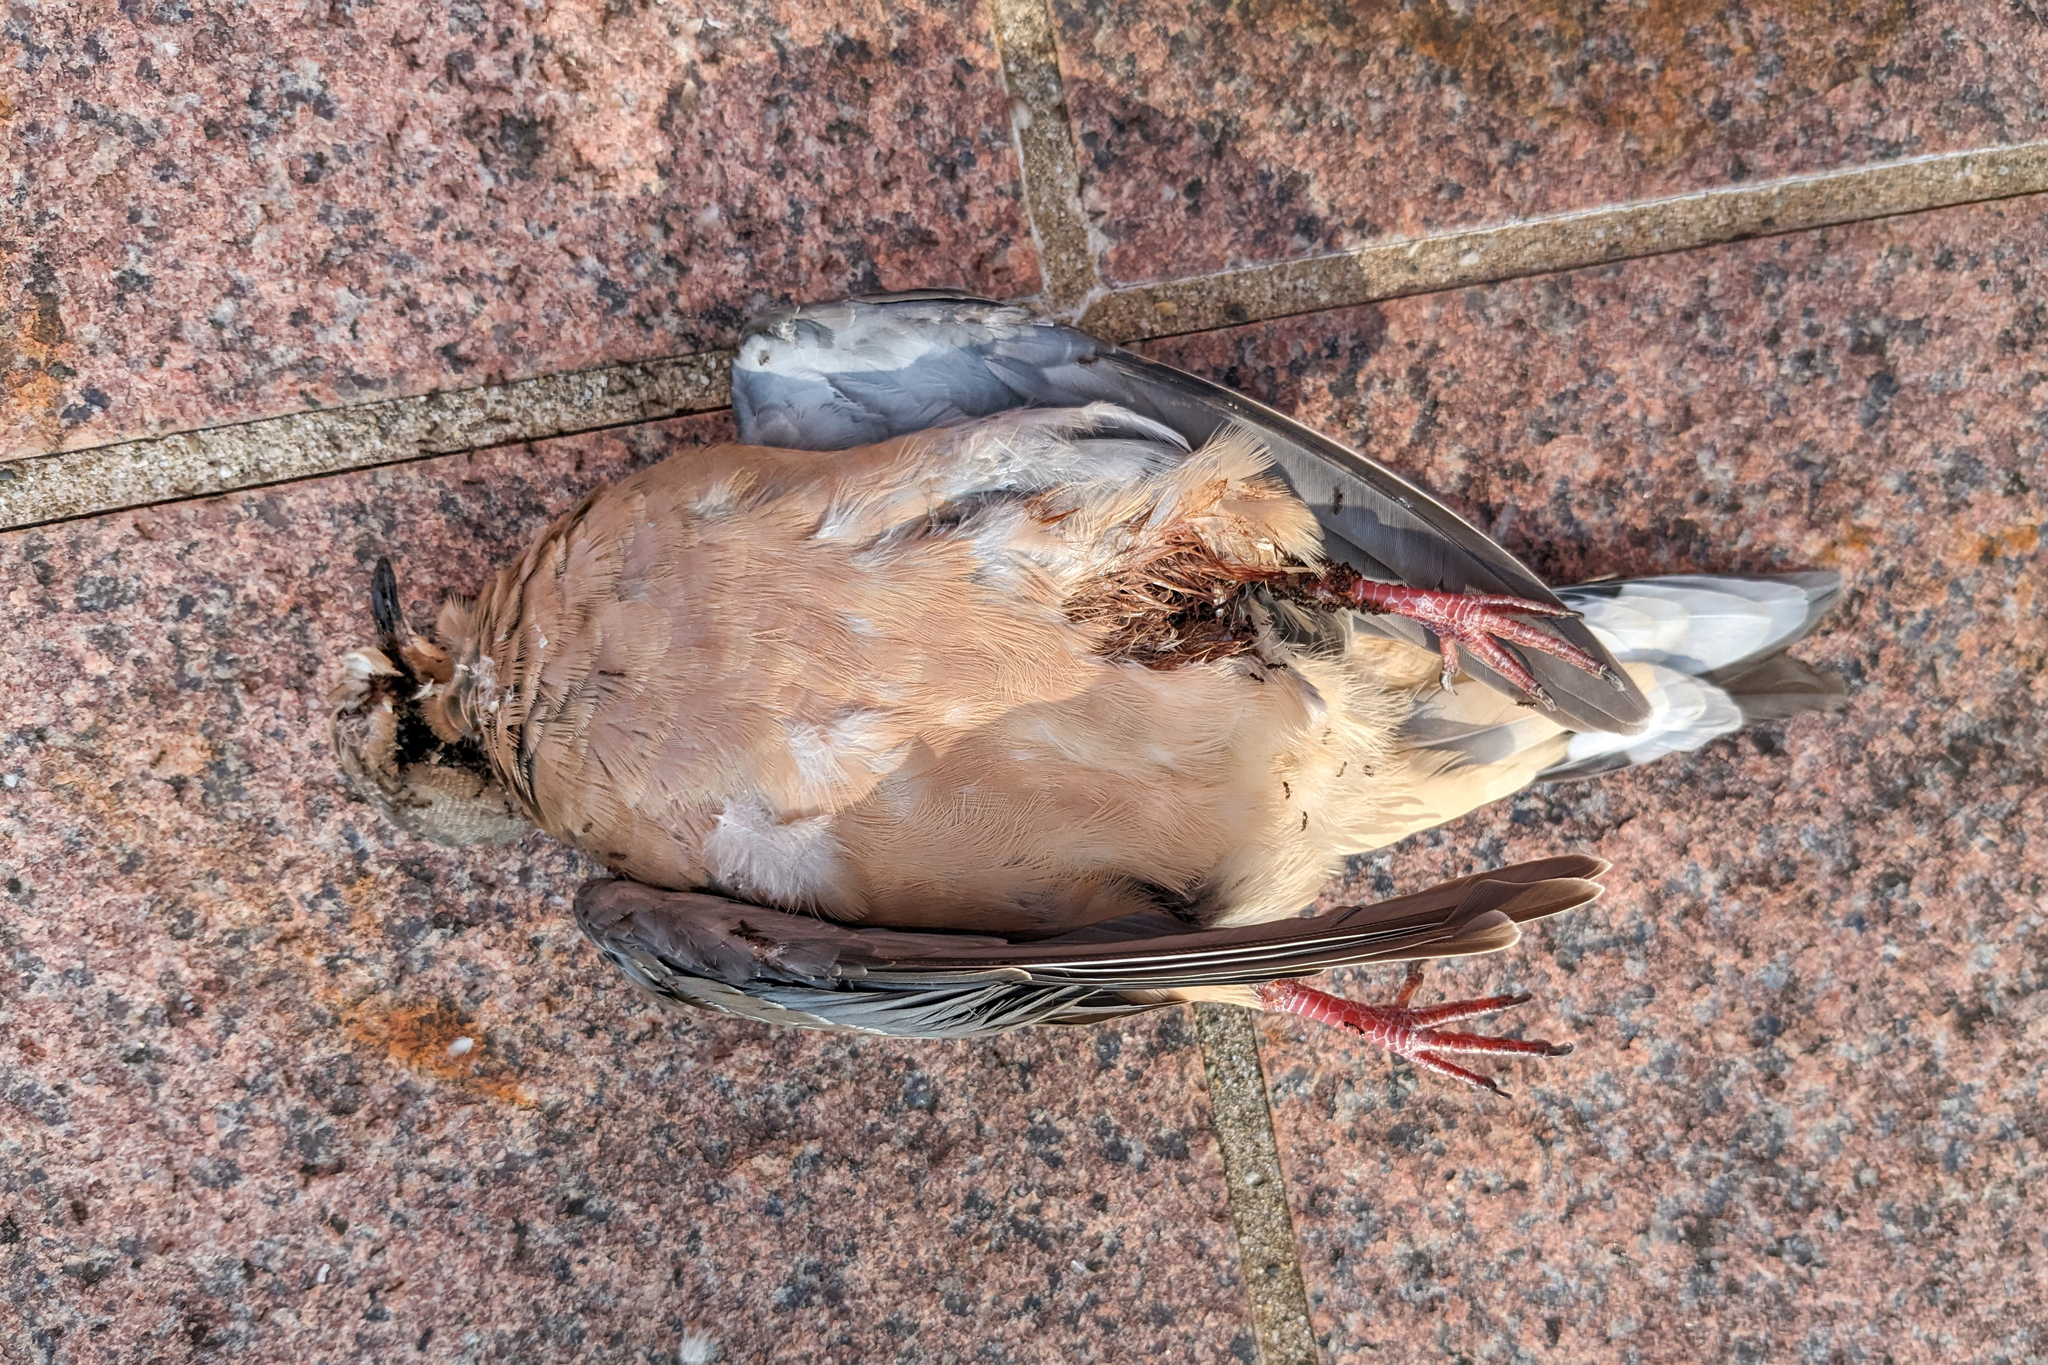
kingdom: Animalia
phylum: Chordata
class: Aves
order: Columbiformes
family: Columbidae
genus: Zenaida
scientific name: Zenaida macroura
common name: Mourning dove
